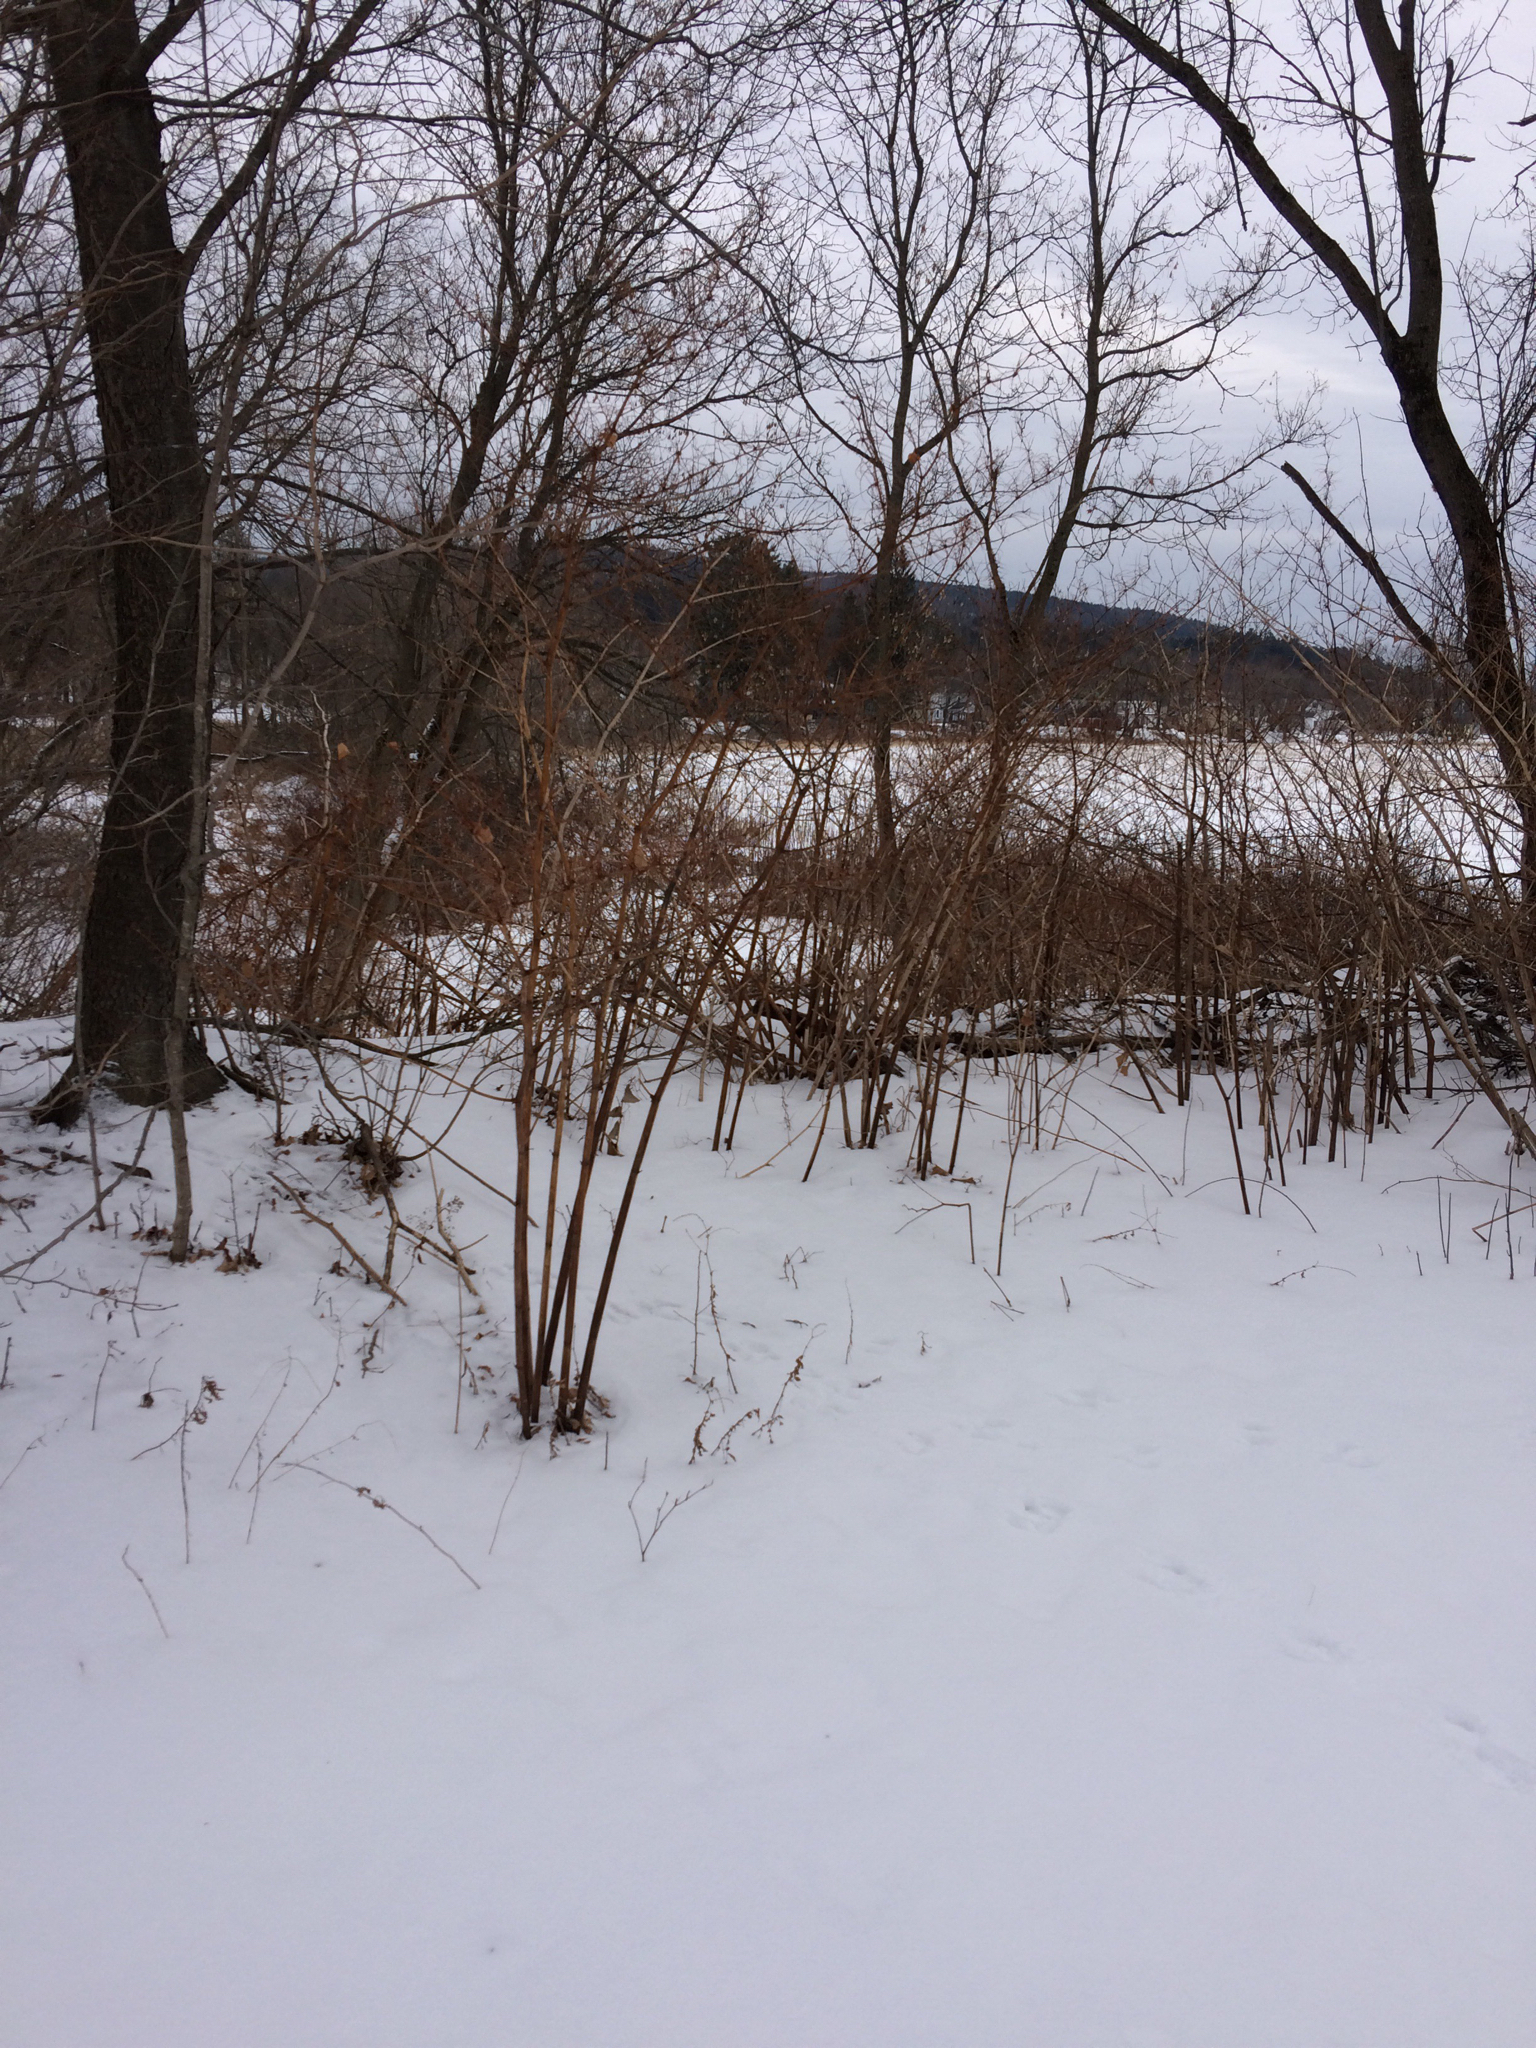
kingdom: Plantae
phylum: Tracheophyta
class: Magnoliopsida
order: Caryophyllales
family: Polygonaceae
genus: Reynoutria
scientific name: Reynoutria japonica
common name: Japanese knotweed
